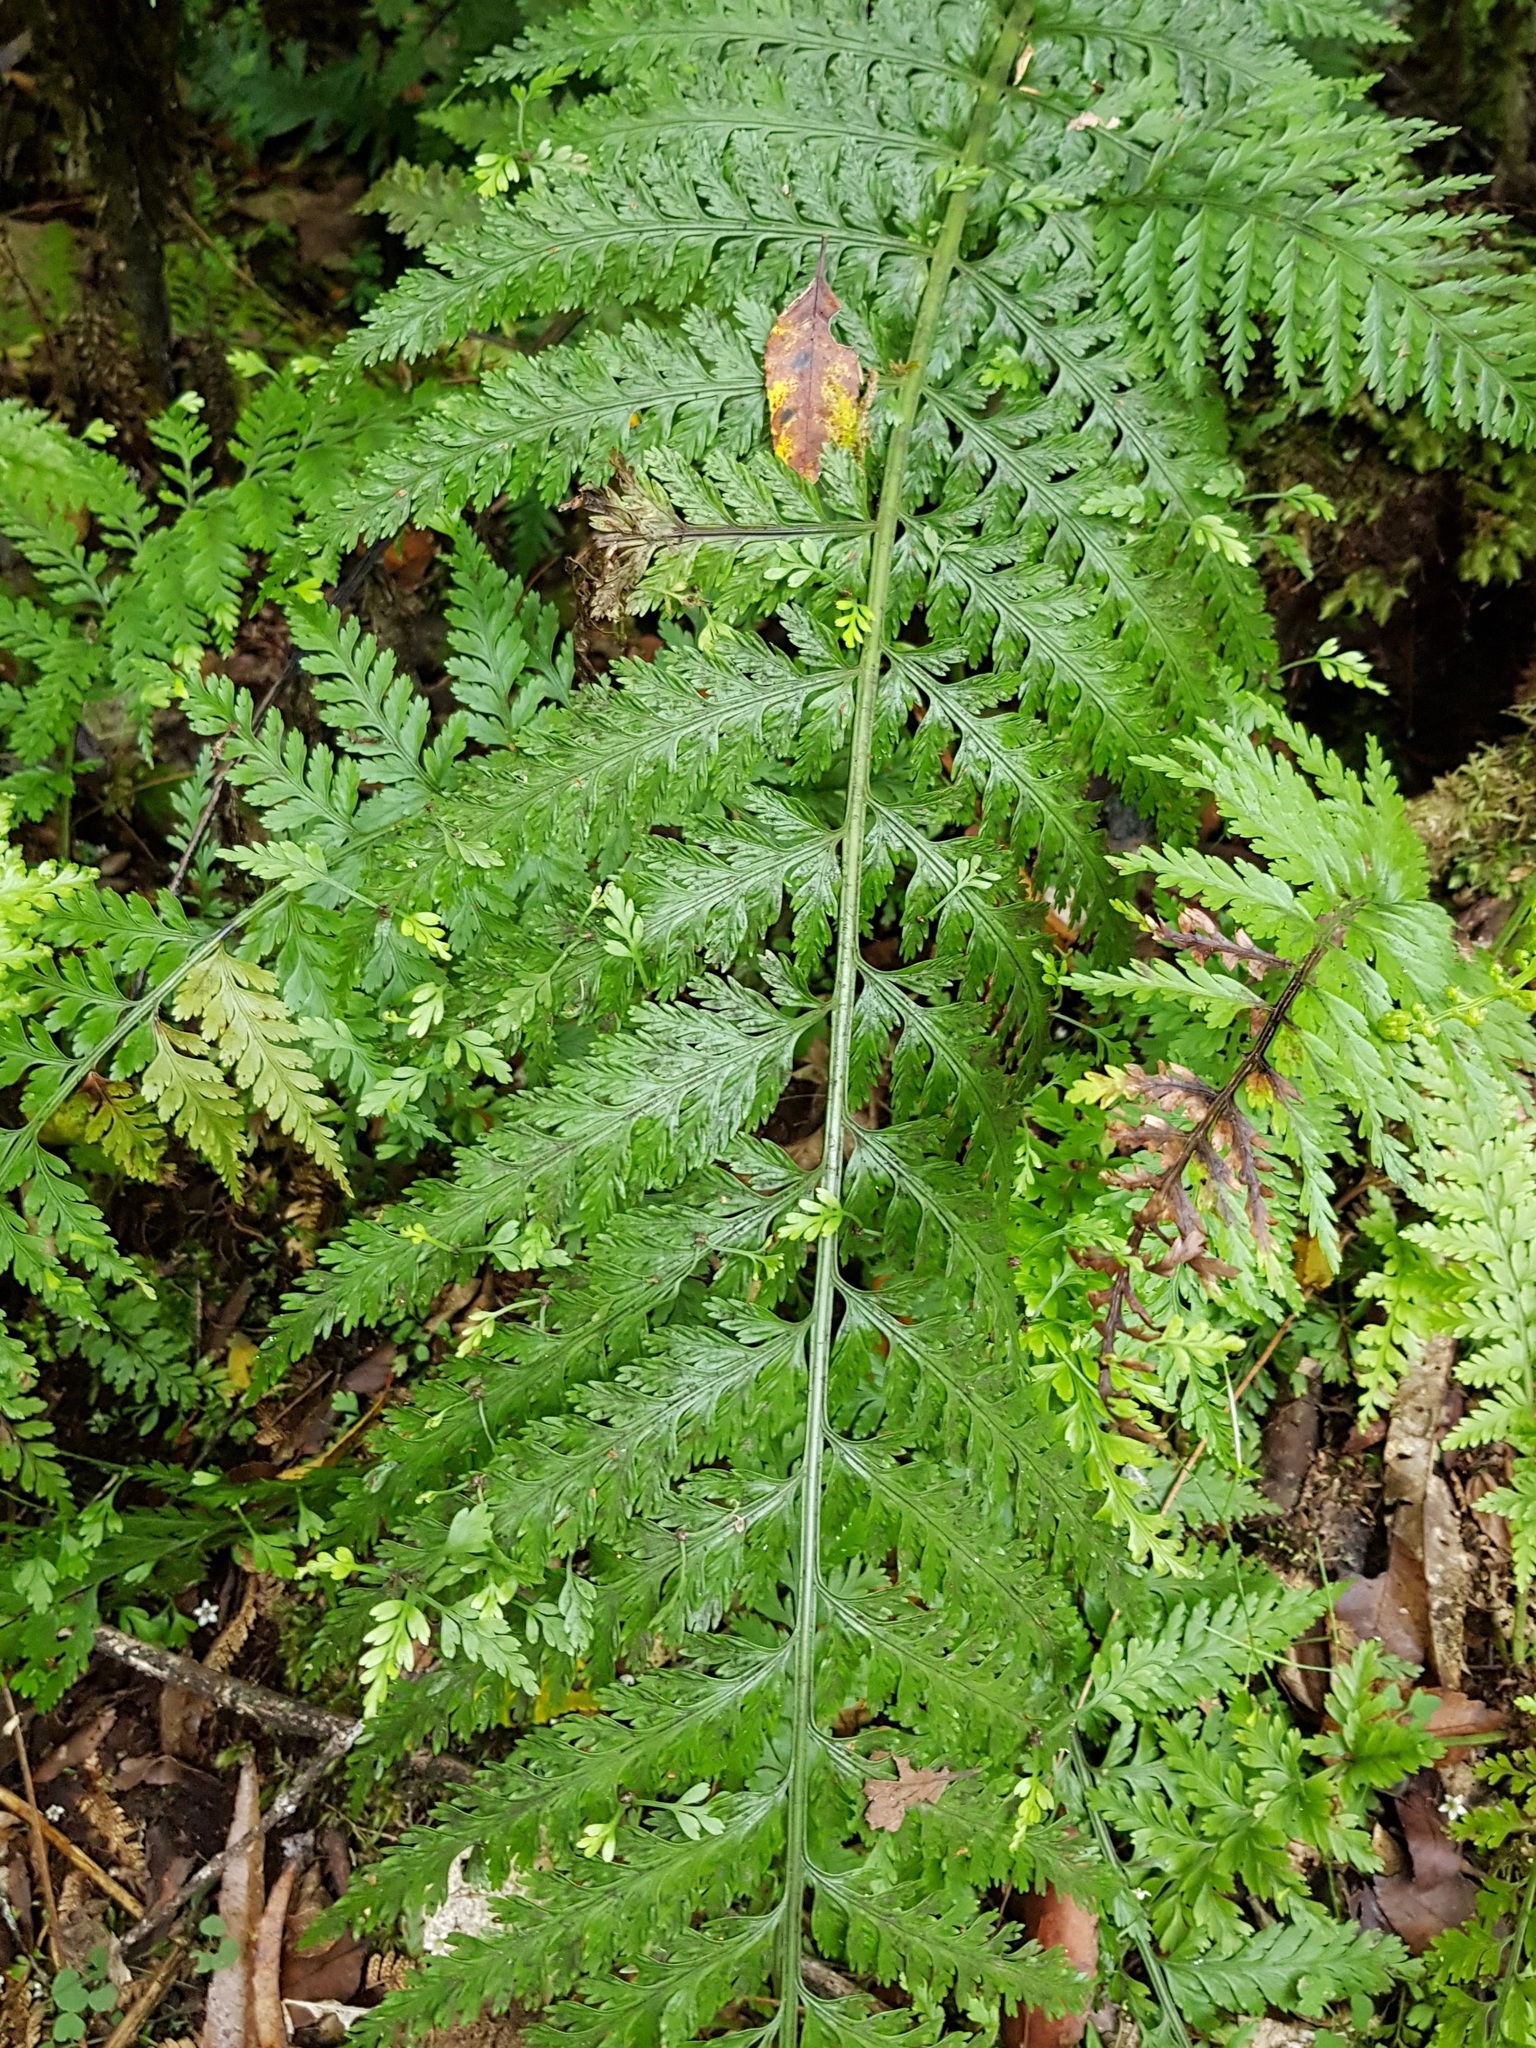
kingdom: Plantae
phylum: Tracheophyta
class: Polypodiopsida
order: Polypodiales
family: Aspleniaceae
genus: Asplenium
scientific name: Asplenium bulbiferum
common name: Mother fern
